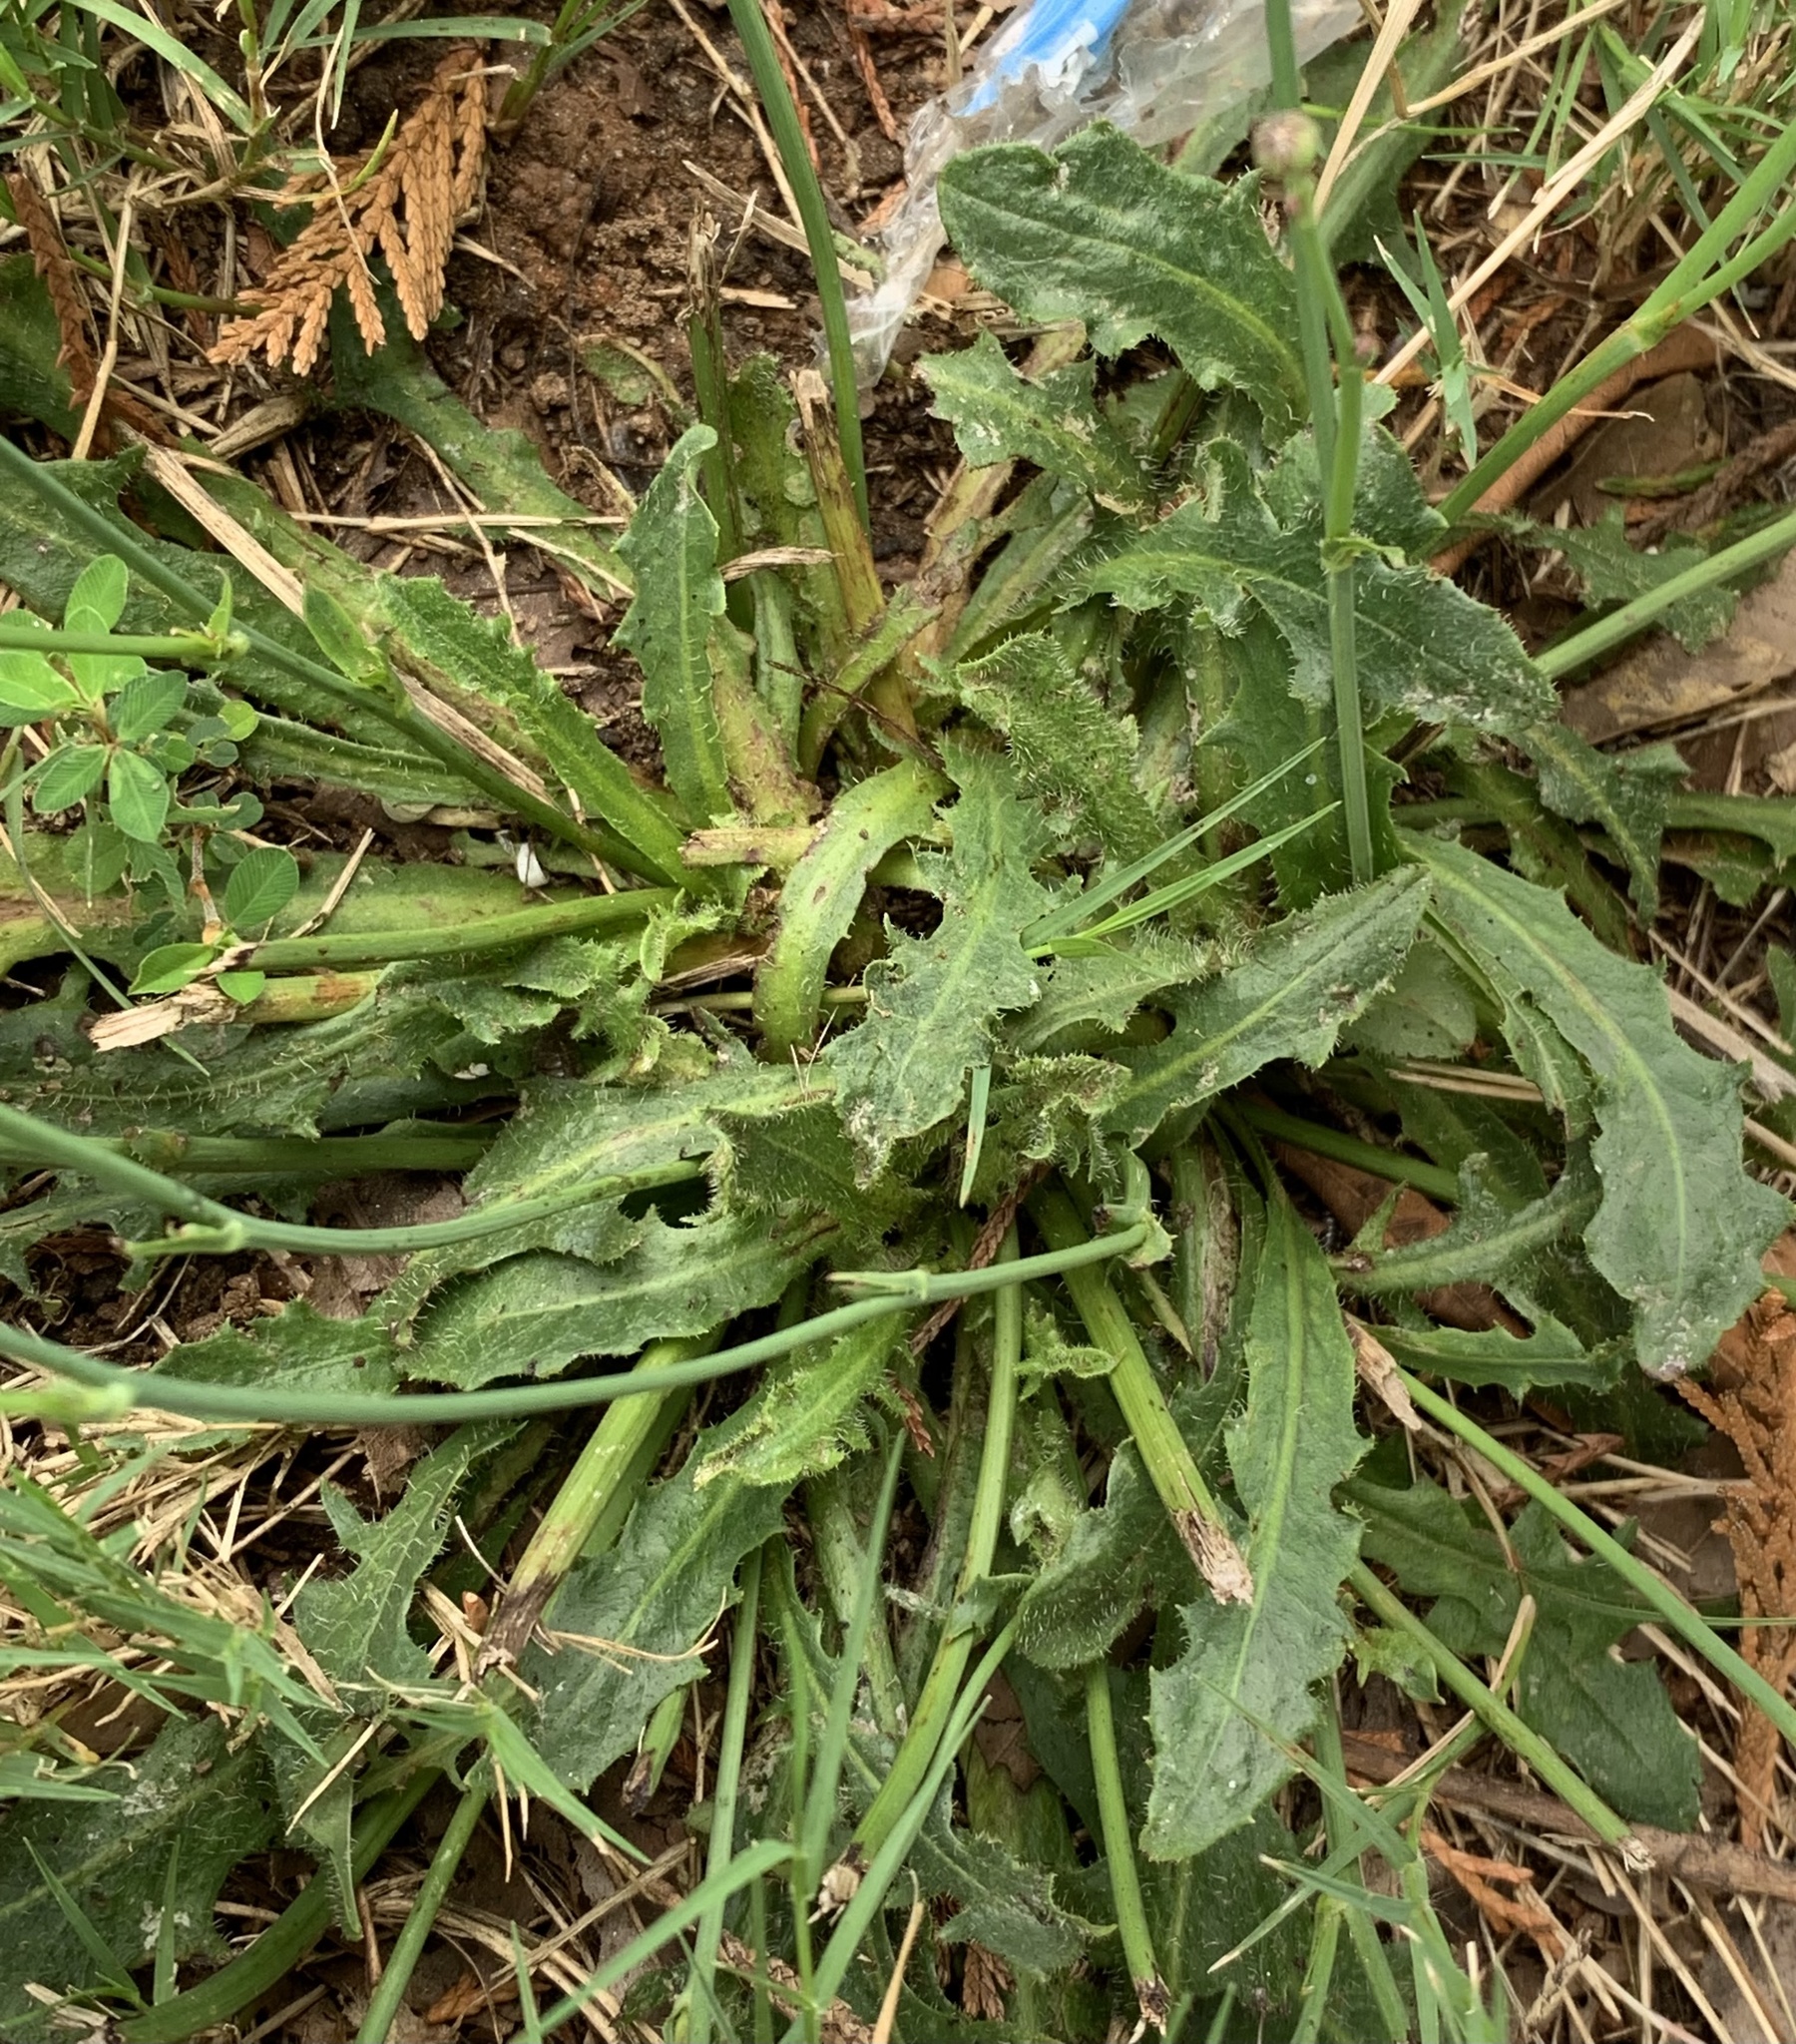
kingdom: Plantae
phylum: Tracheophyta
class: Magnoliopsida
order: Asterales
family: Asteraceae
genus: Hypochaeris
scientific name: Hypochaeris radicata
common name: Flatweed
